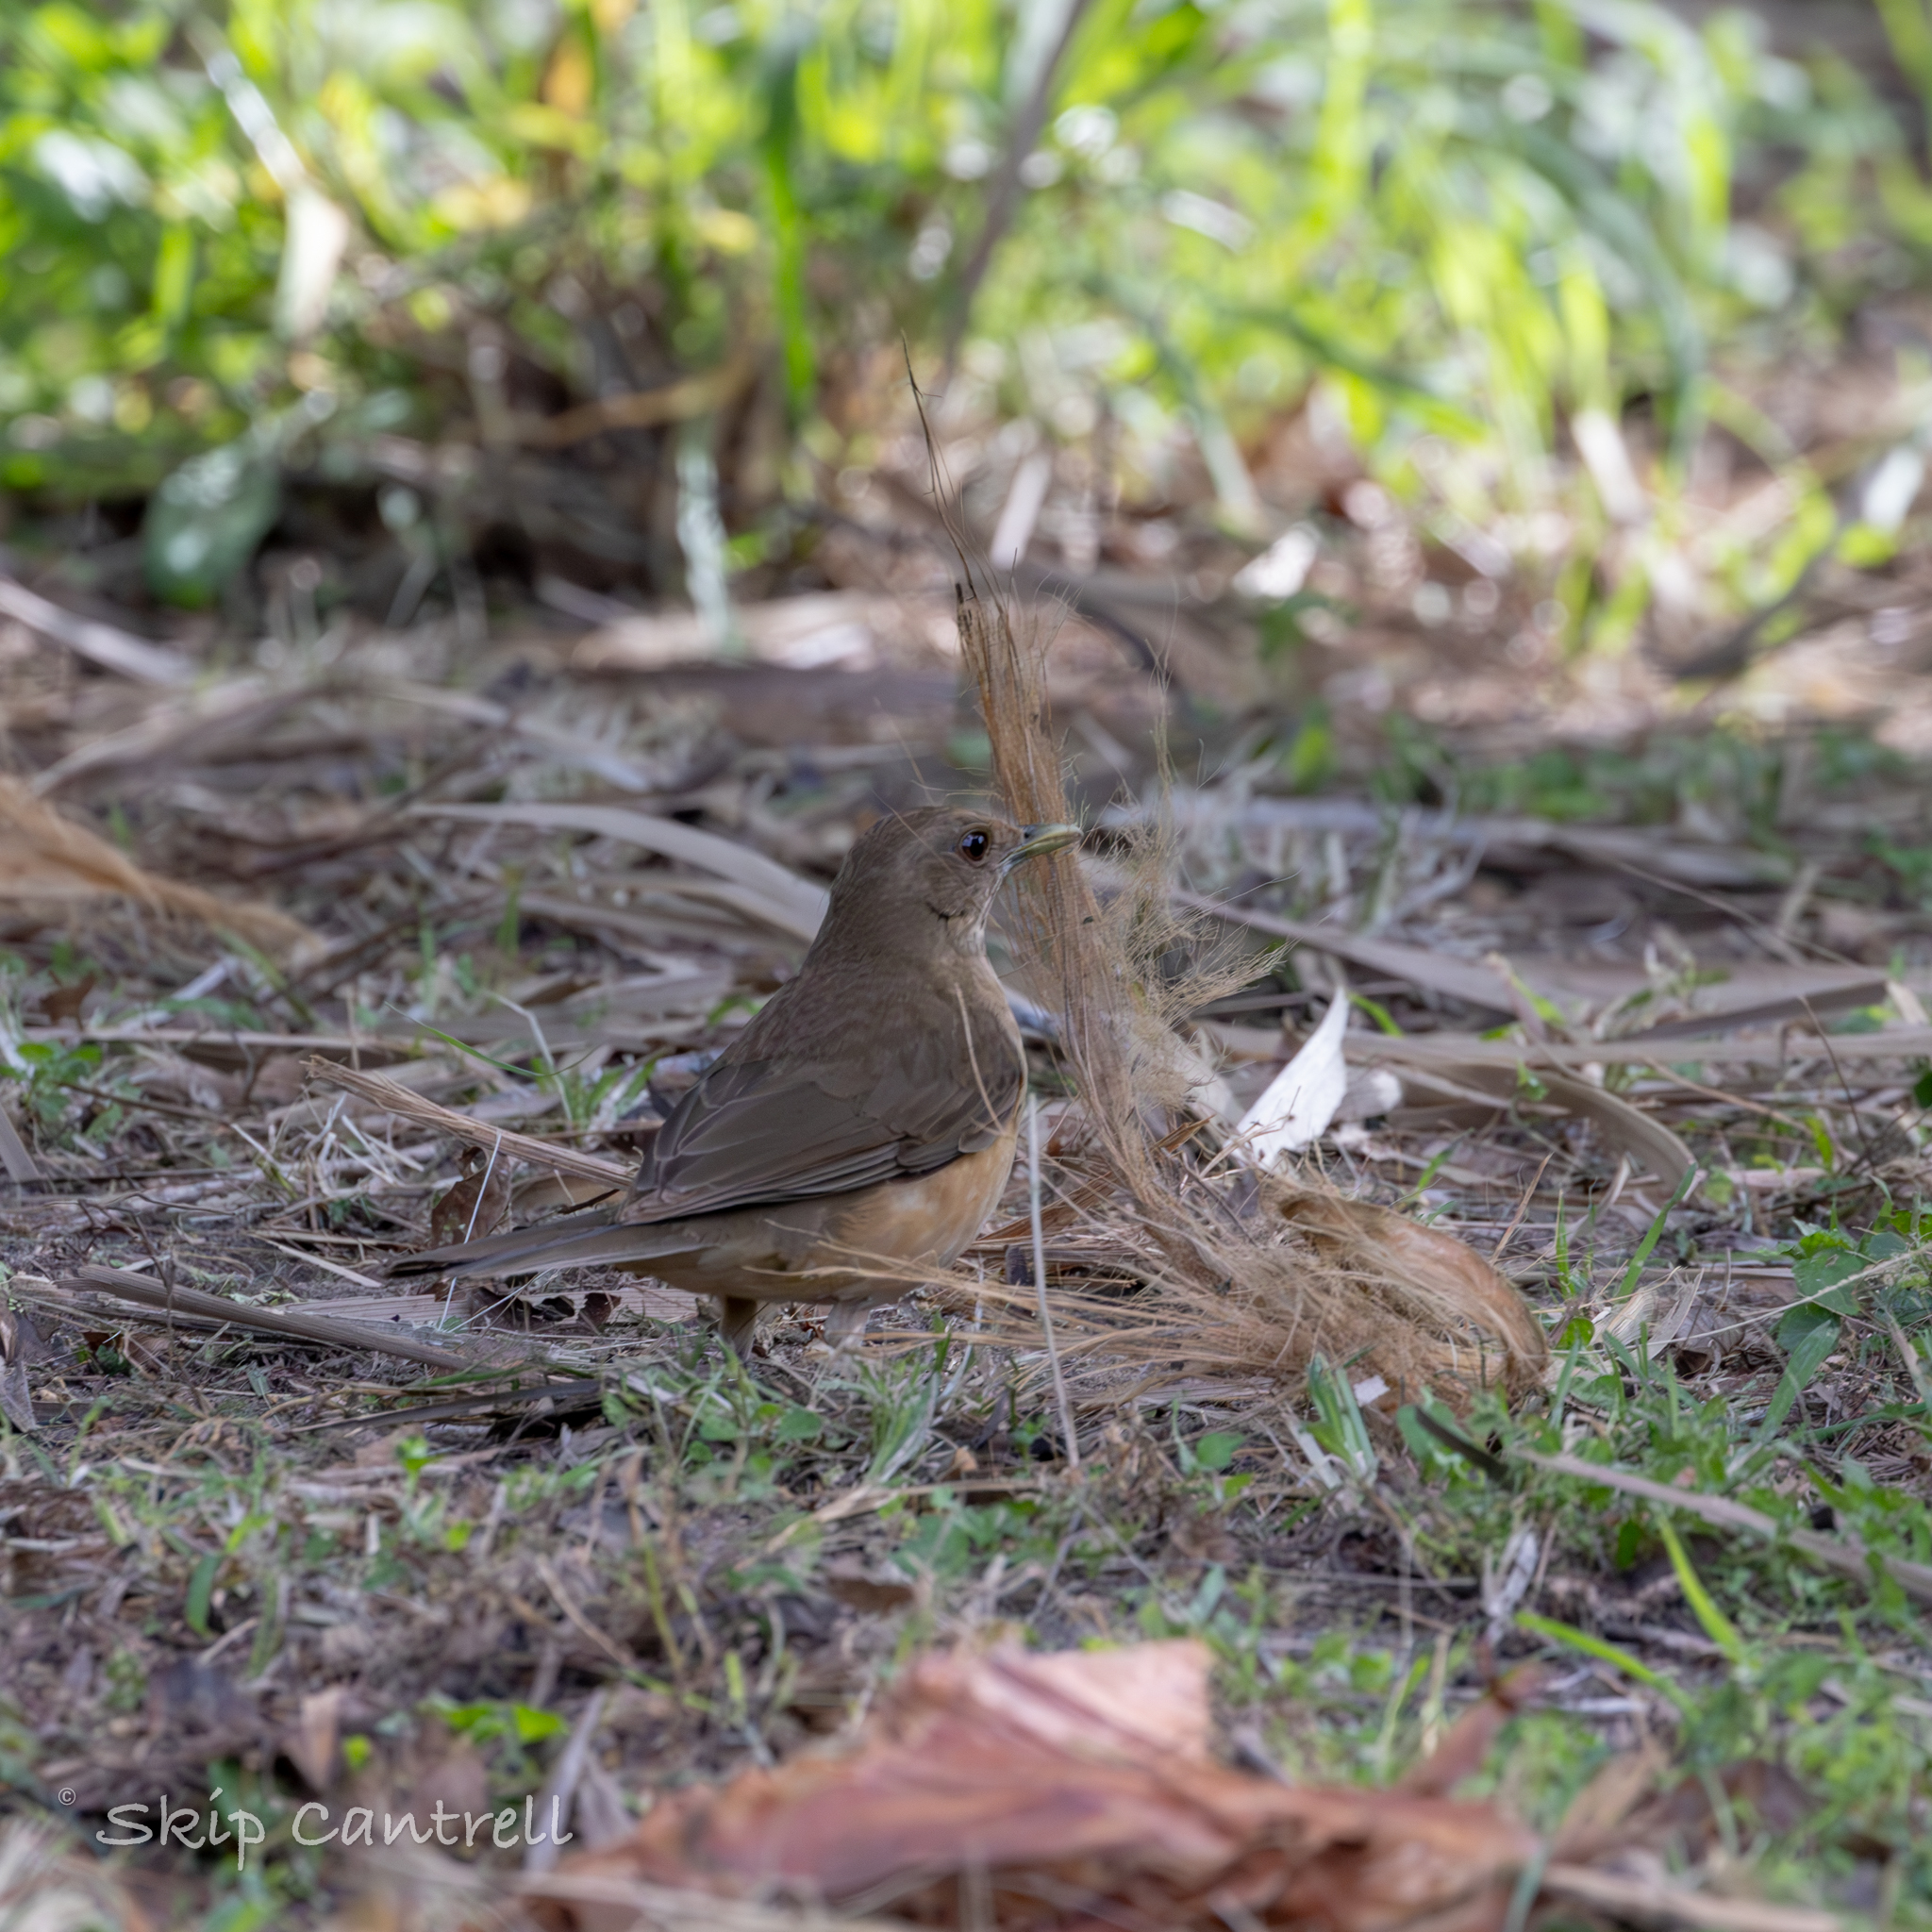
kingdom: Animalia
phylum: Chordata
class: Aves
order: Passeriformes
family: Turdidae
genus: Turdus
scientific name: Turdus grayi
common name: Clay-colored thrush
